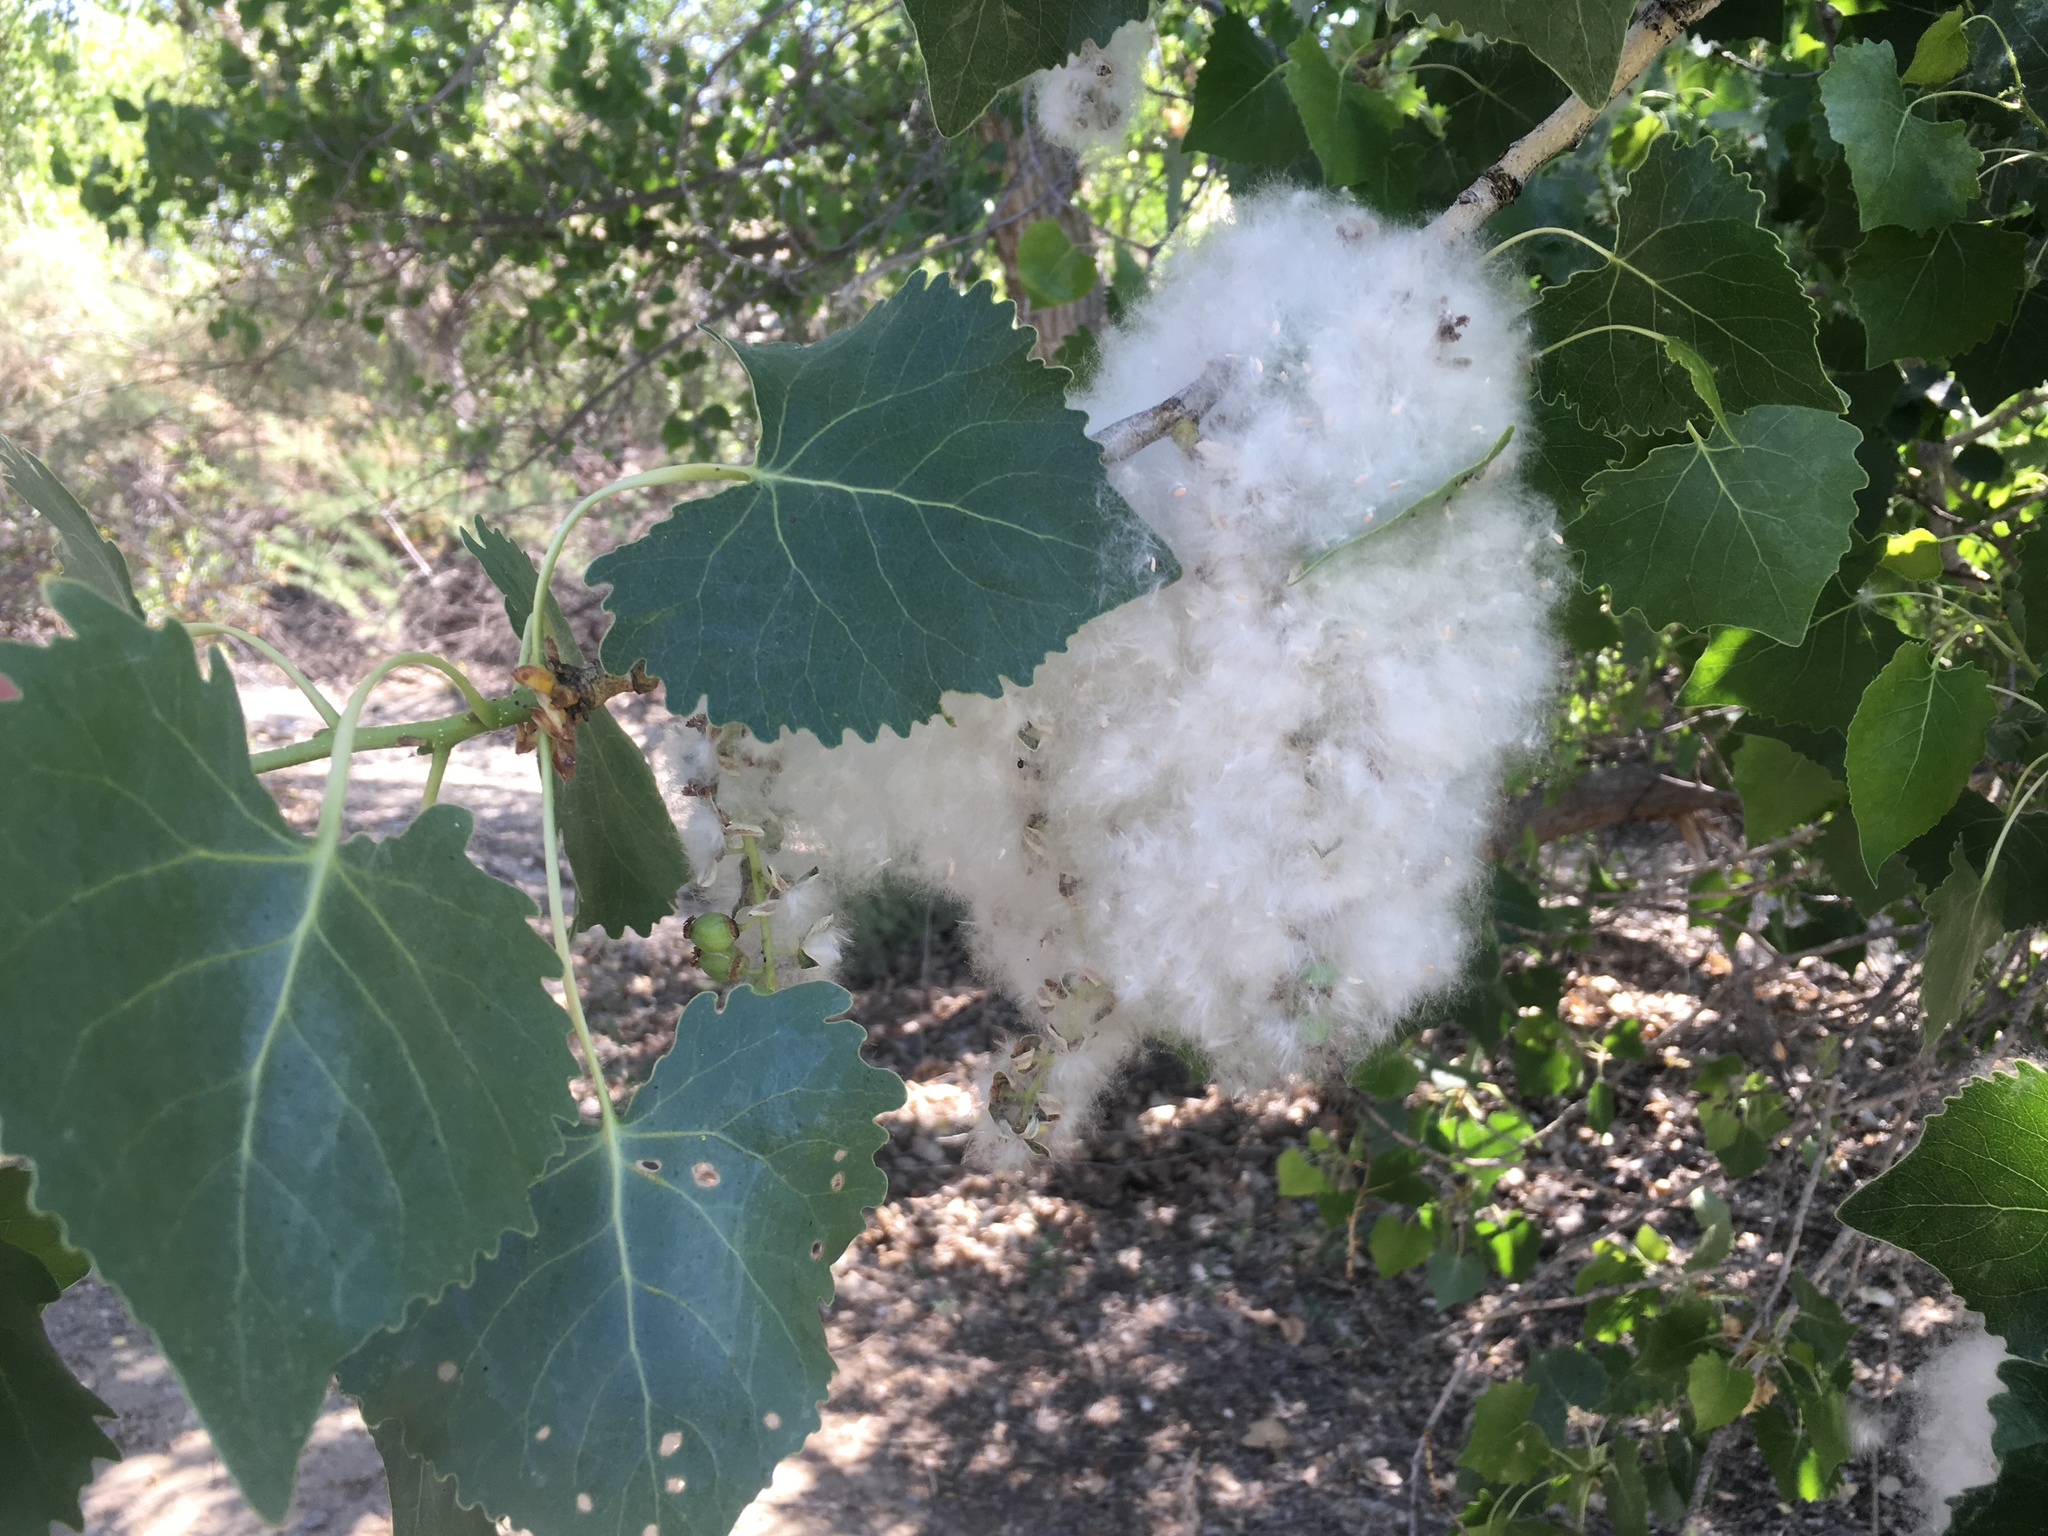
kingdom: Plantae
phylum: Tracheophyta
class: Magnoliopsida
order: Malpighiales
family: Salicaceae
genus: Populus
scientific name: Populus fremontii
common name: Fremont's cottonwood
